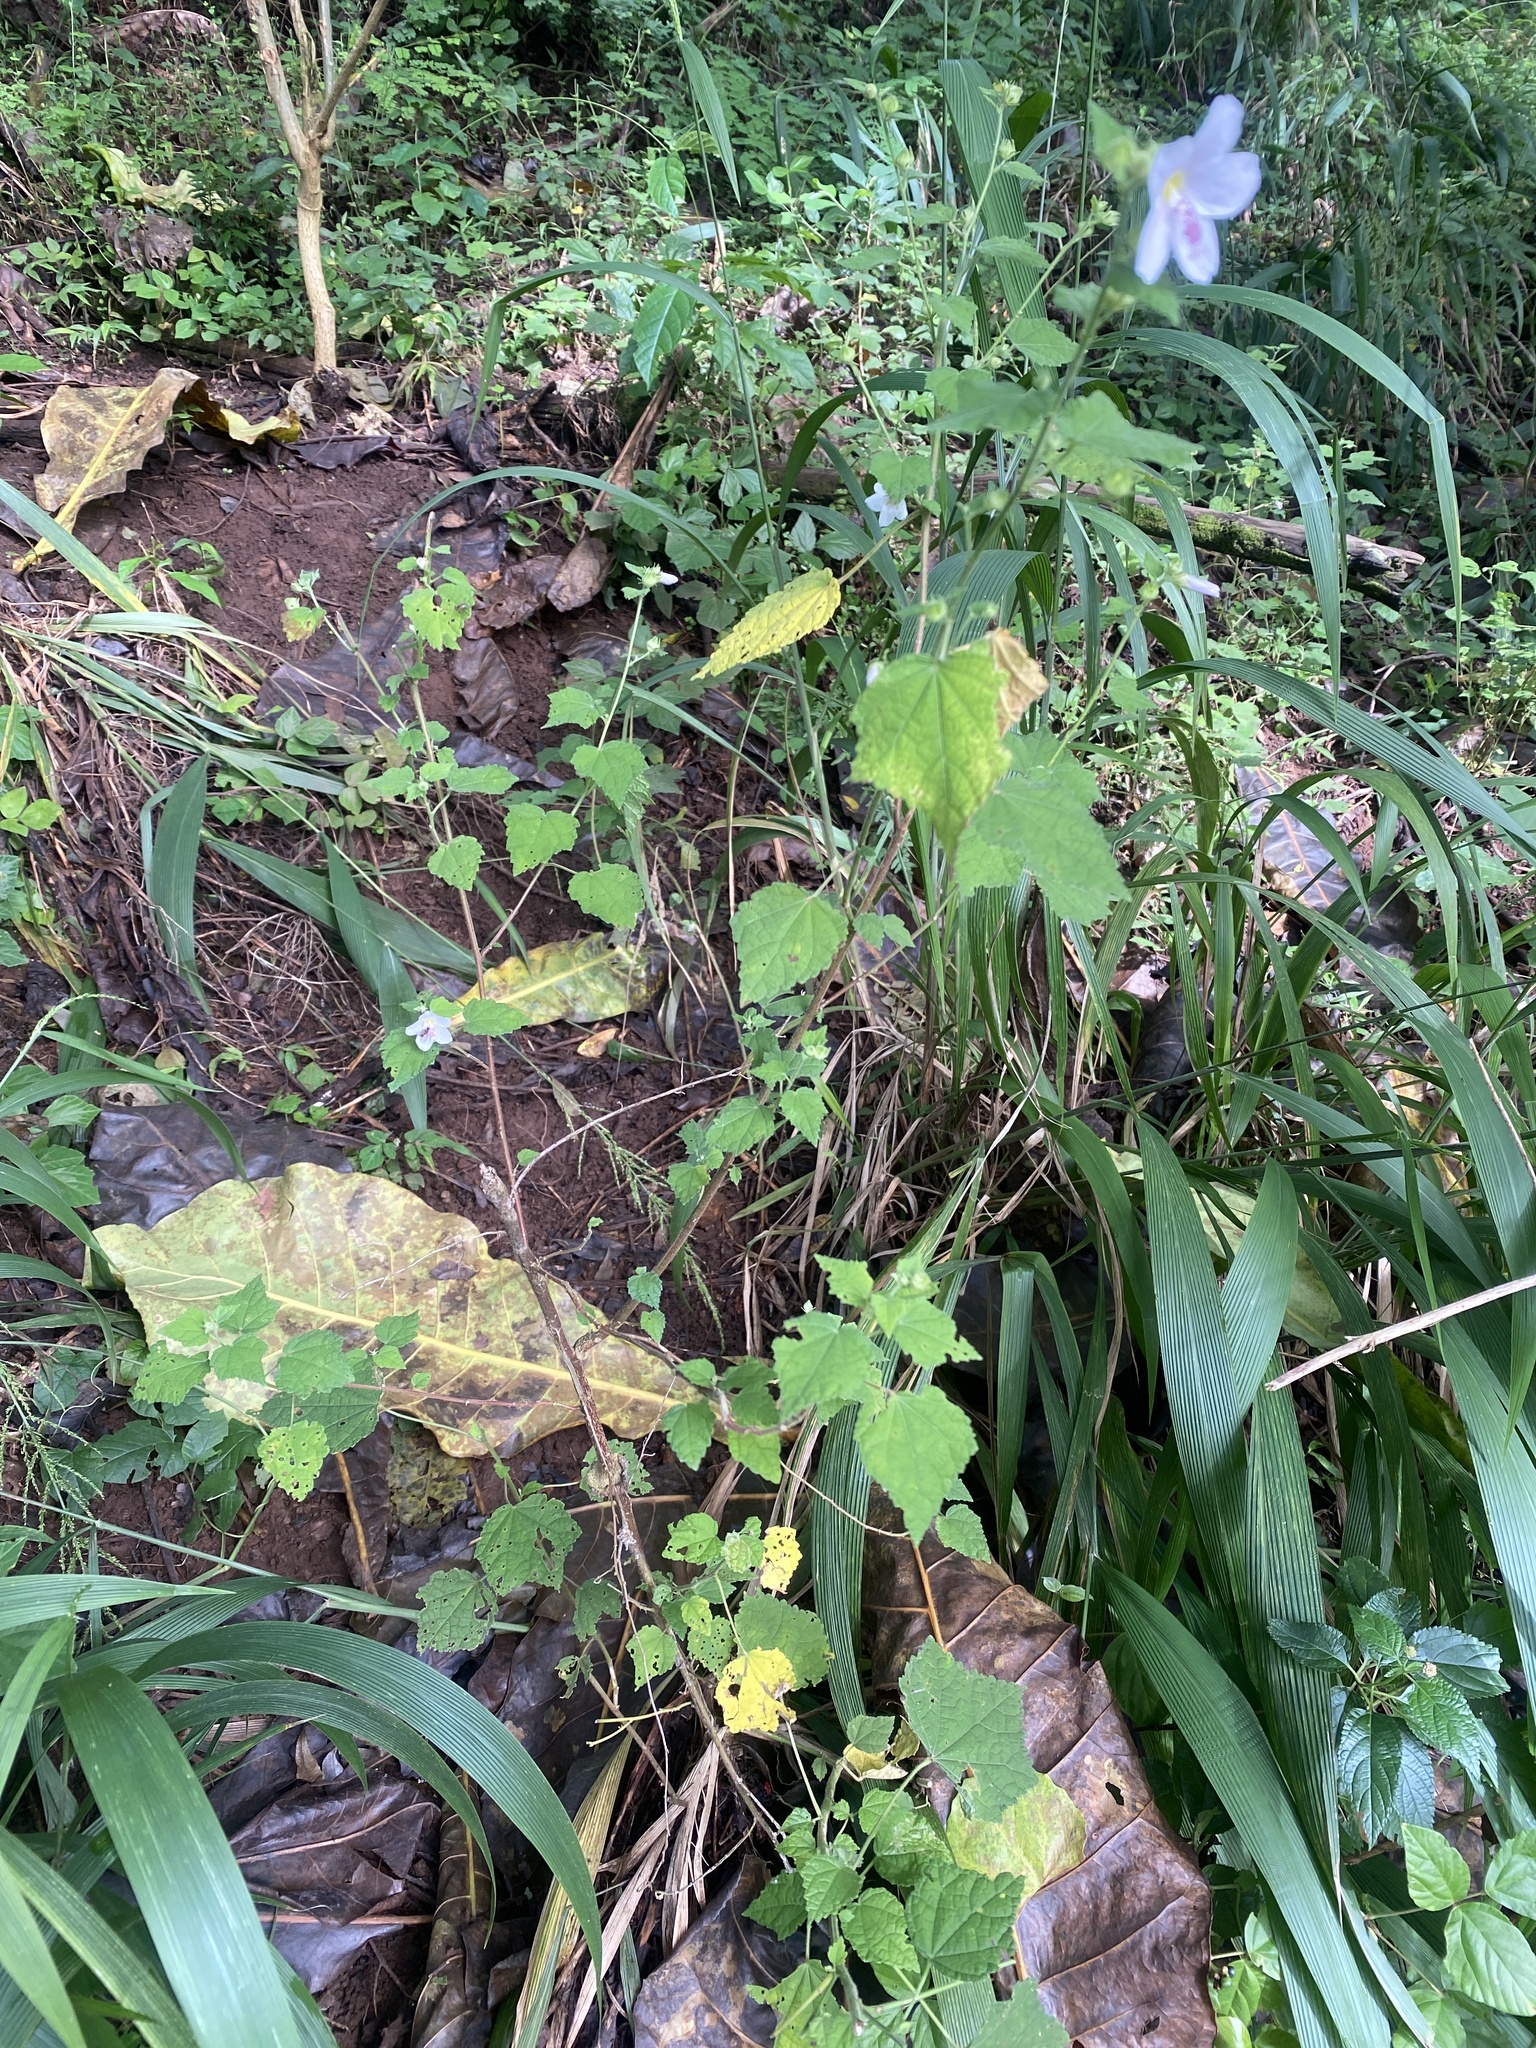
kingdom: Plantae
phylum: Tracheophyta
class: Magnoliopsida
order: Malvales
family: Malvaceae
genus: Pavonia
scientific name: Pavonia columella
